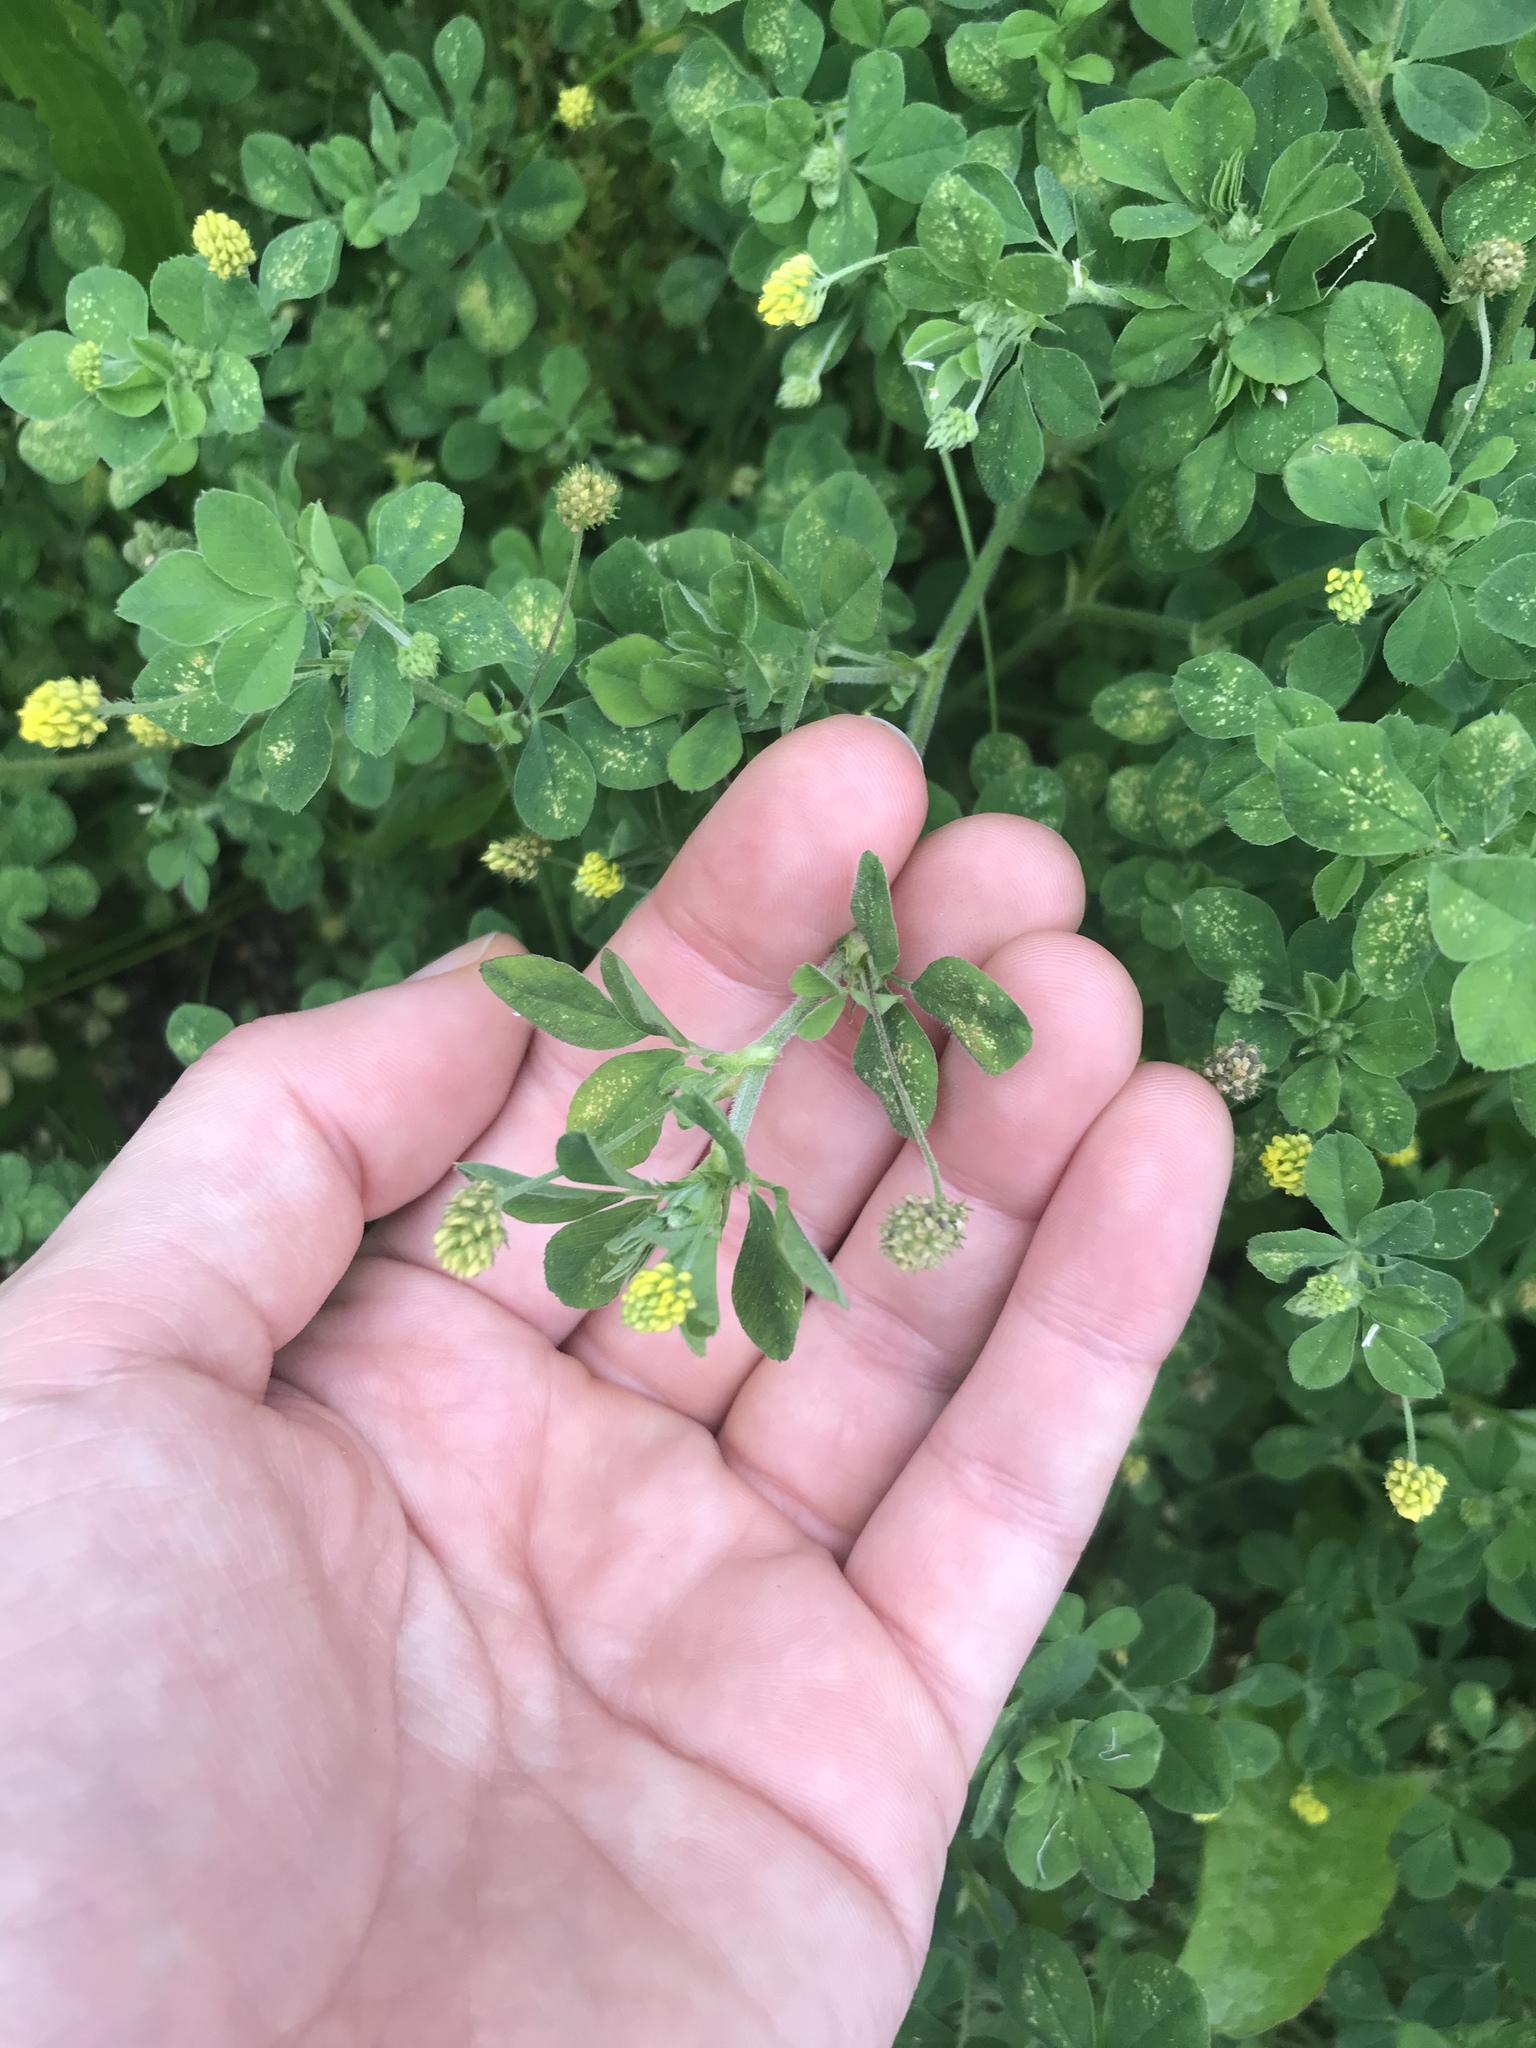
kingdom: Plantae
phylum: Tracheophyta
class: Magnoliopsida
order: Fabales
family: Fabaceae
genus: Medicago
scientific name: Medicago lupulina
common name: Black medick
